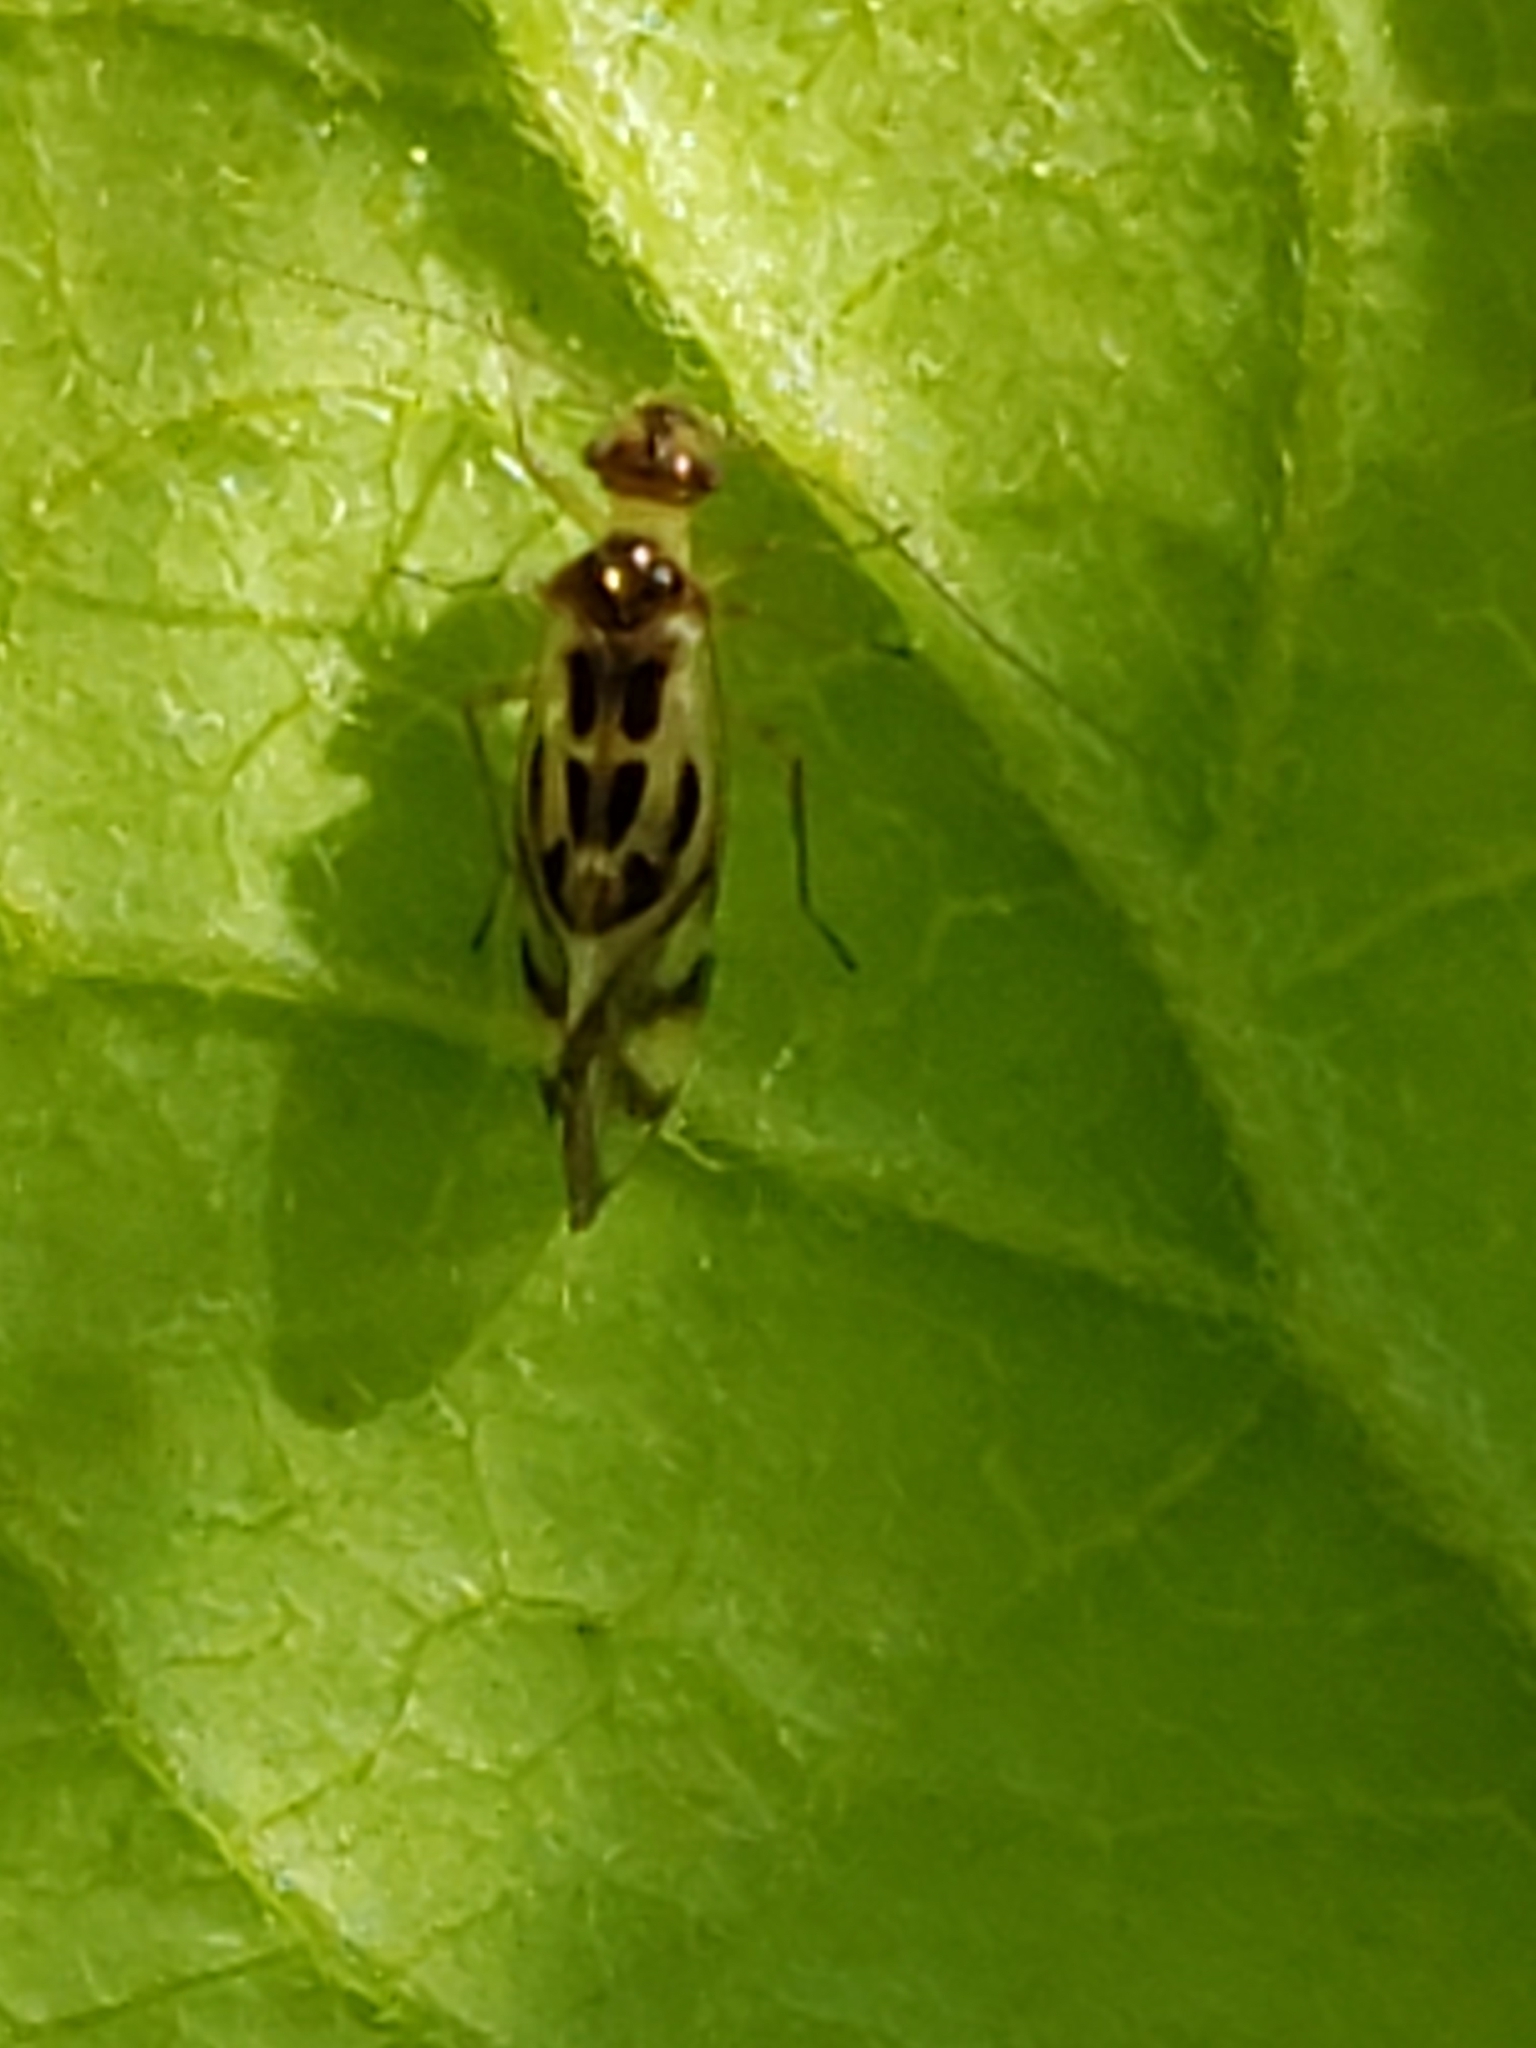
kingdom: Animalia
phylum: Arthropoda
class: Insecta
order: Psocodea
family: Stenopsocidae
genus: Graphopsocus
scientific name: Graphopsocus cruciatus
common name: Lizard bark louse
